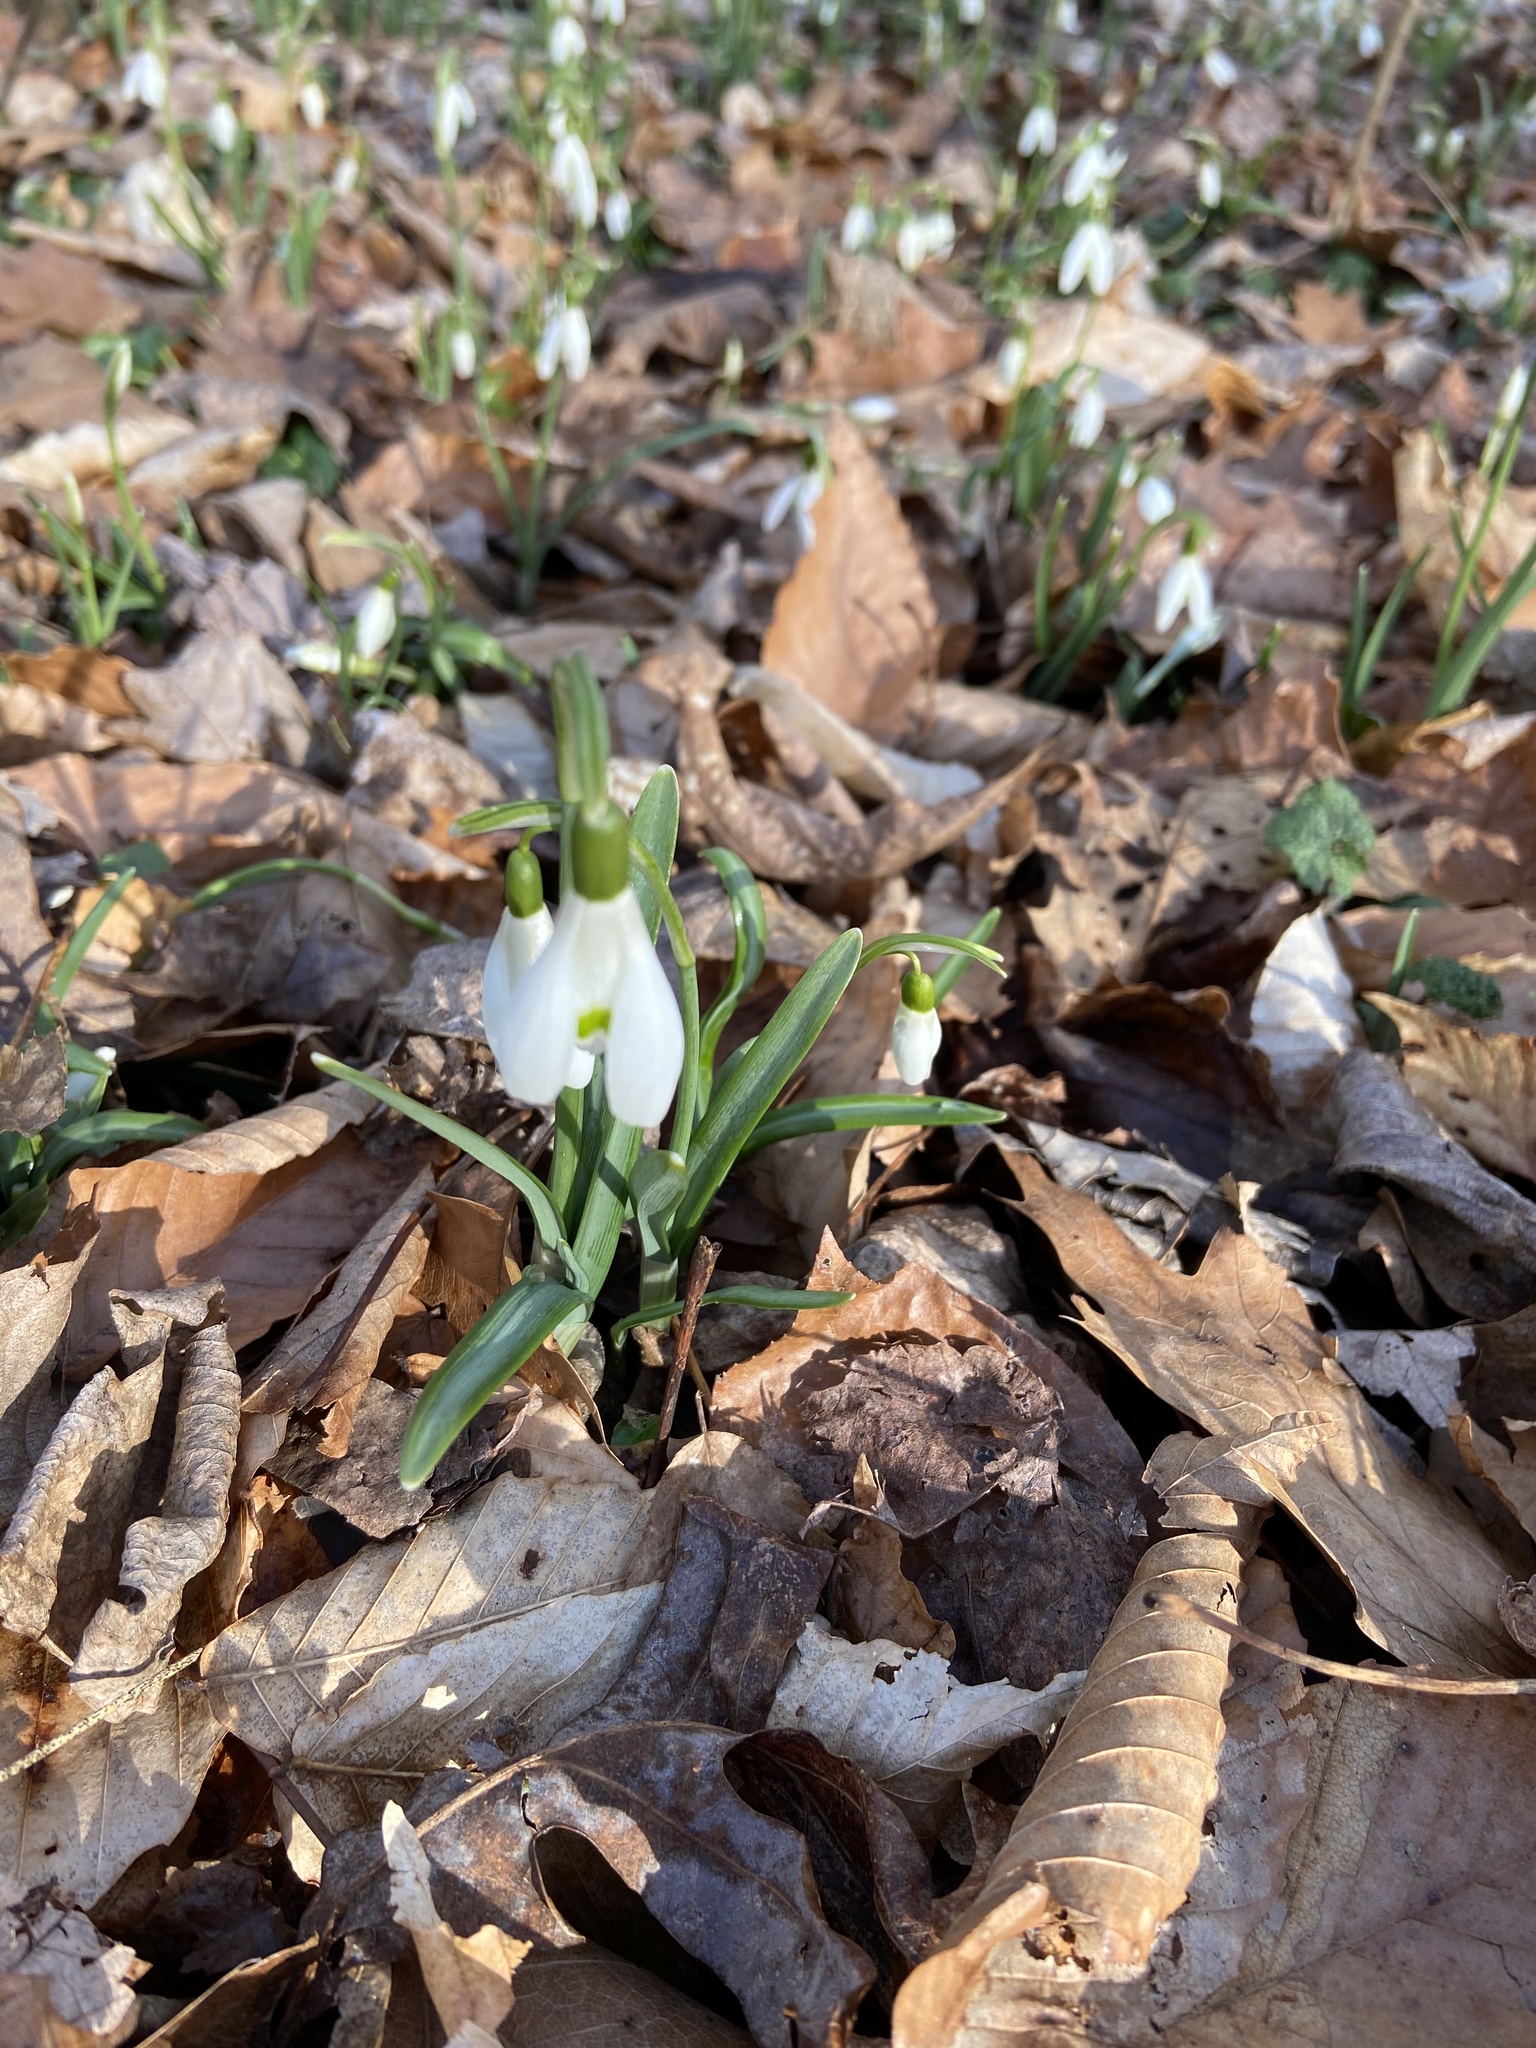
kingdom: Plantae
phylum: Tracheophyta
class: Liliopsida
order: Asparagales
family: Amaryllidaceae
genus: Galanthus
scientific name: Galanthus nivalis
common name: Snowdrop
